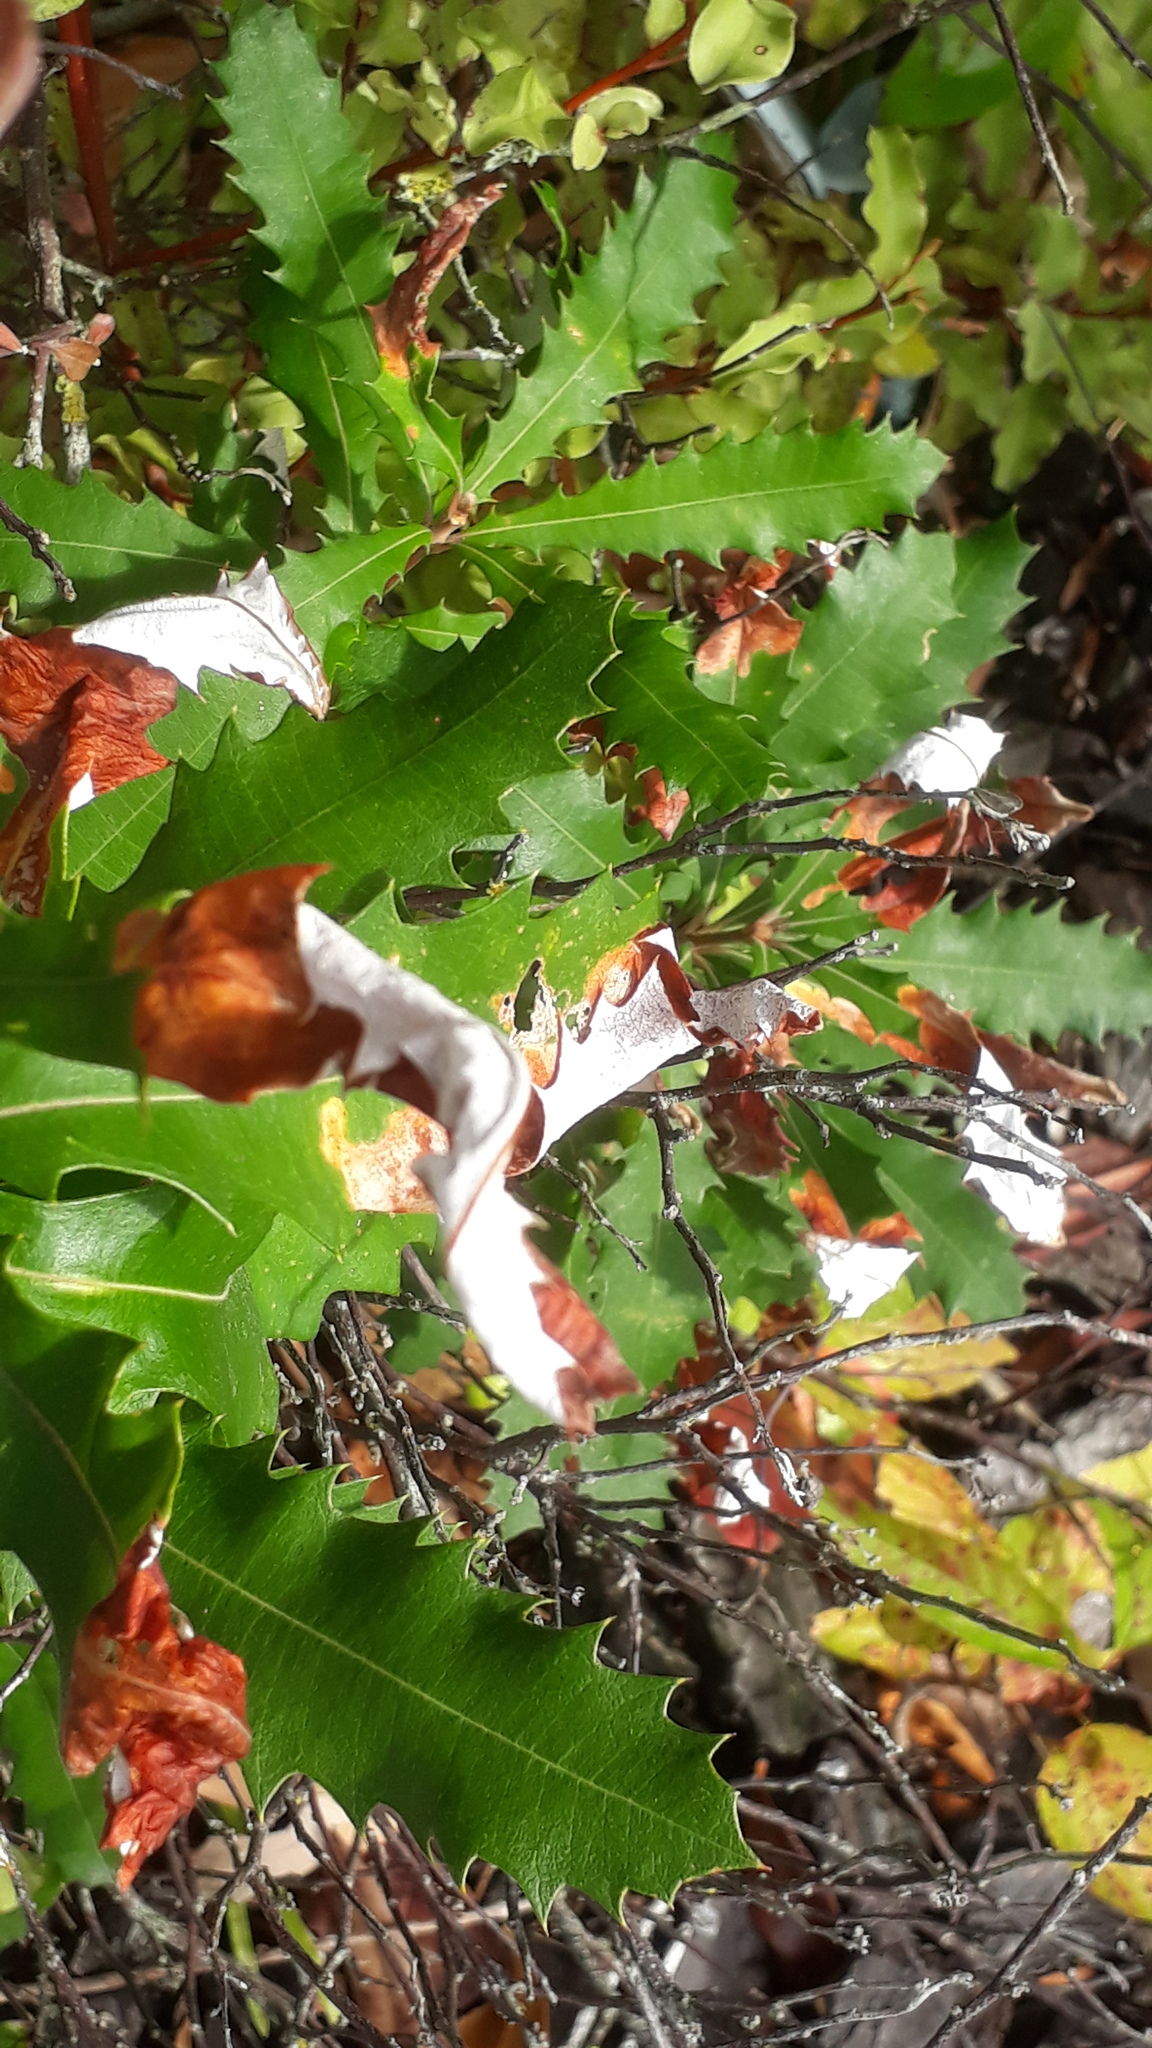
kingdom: Plantae
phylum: Tracheophyta
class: Magnoliopsida
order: Proteales
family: Proteaceae
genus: Banksia
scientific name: Banksia integrifolia
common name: White-honeysuckle
